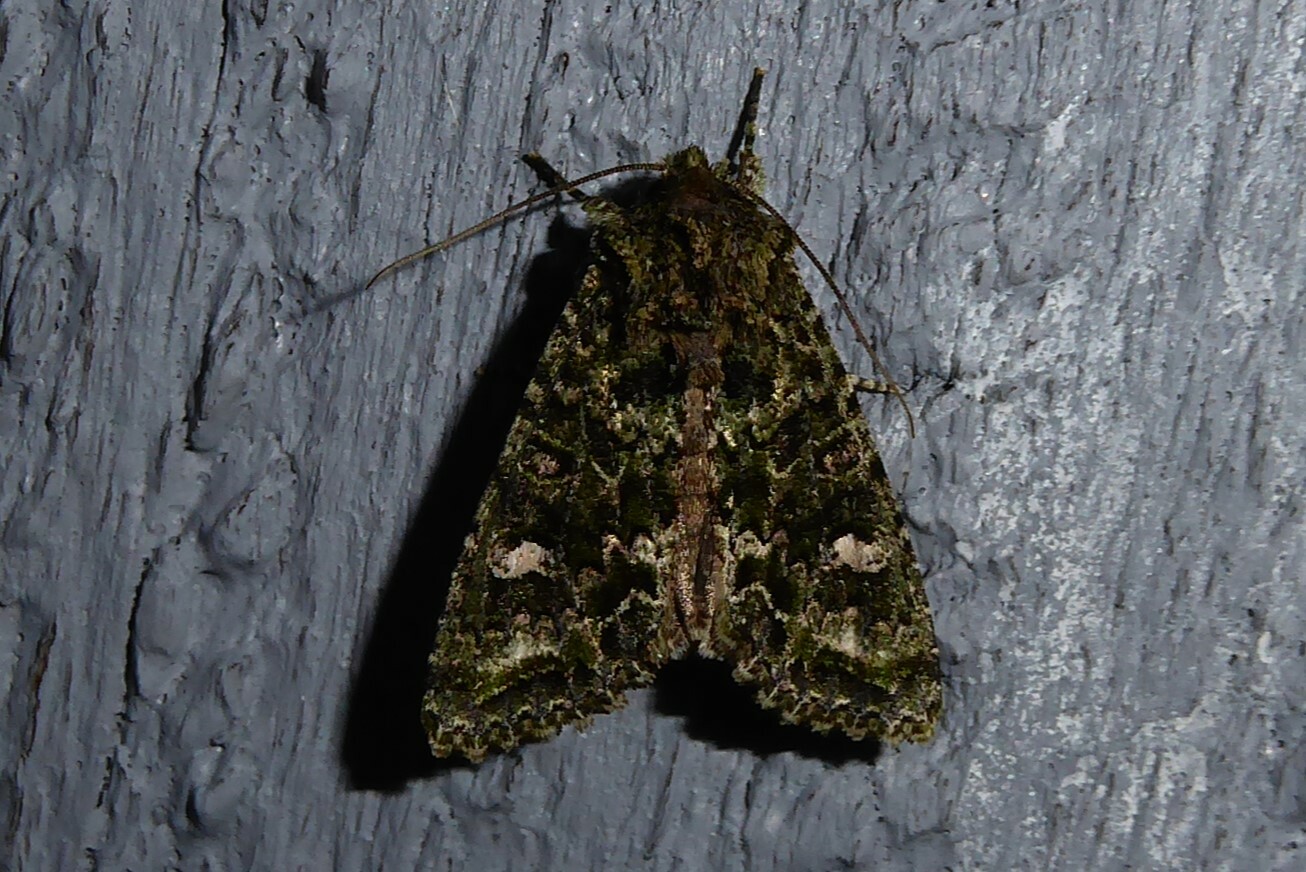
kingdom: Animalia
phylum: Arthropoda
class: Insecta
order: Lepidoptera
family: Noctuidae
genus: Ichneutica
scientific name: Ichneutica
